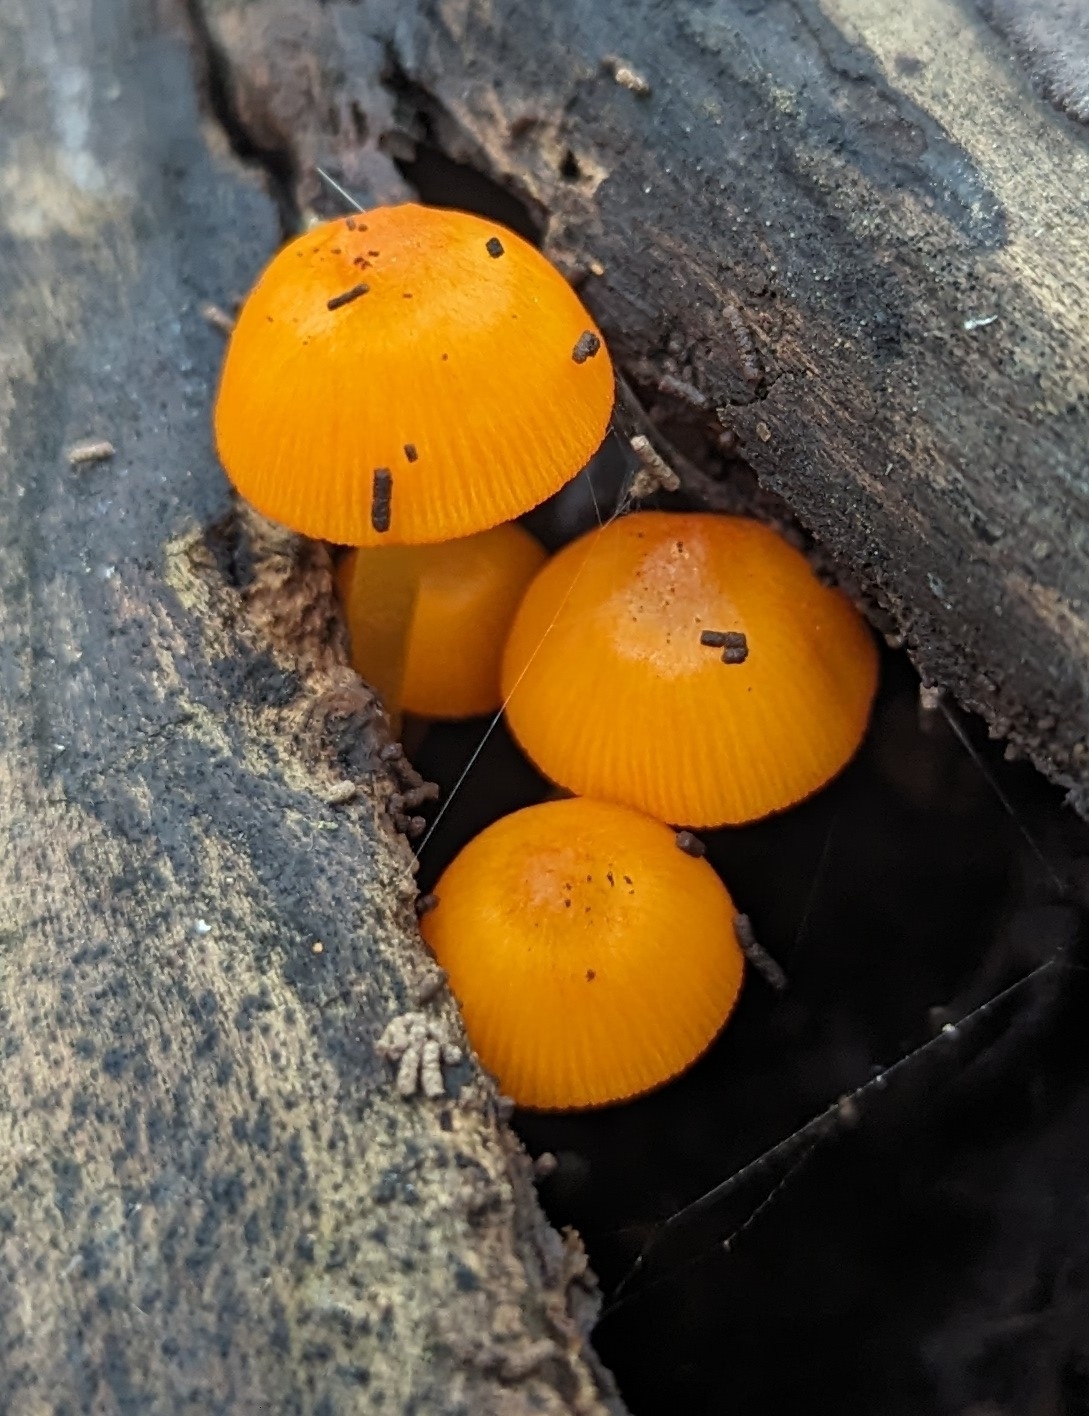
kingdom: Fungi
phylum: Basidiomycota
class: Agaricomycetes
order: Agaricales
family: Mycenaceae
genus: Mycena
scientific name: Mycena leaiana
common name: Orange mycena
